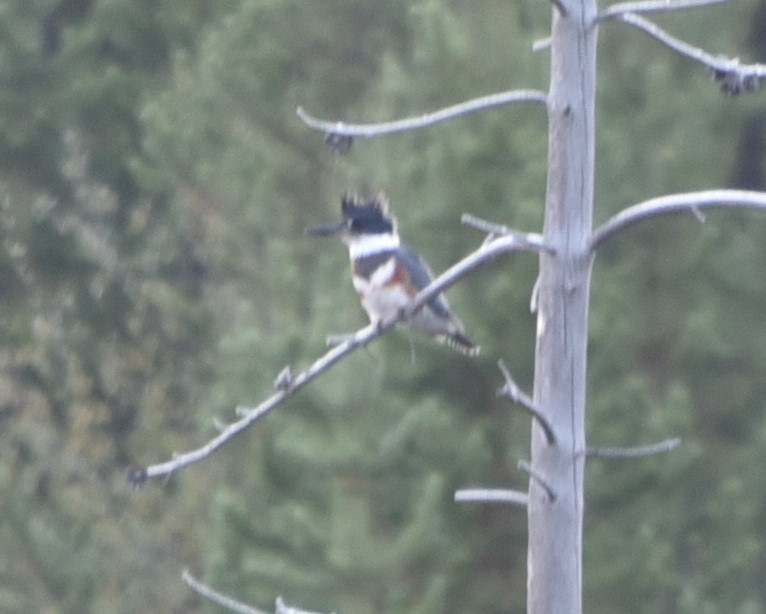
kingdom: Animalia
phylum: Chordata
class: Aves
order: Coraciiformes
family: Alcedinidae
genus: Megaceryle
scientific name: Megaceryle alcyon
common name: Belted kingfisher
